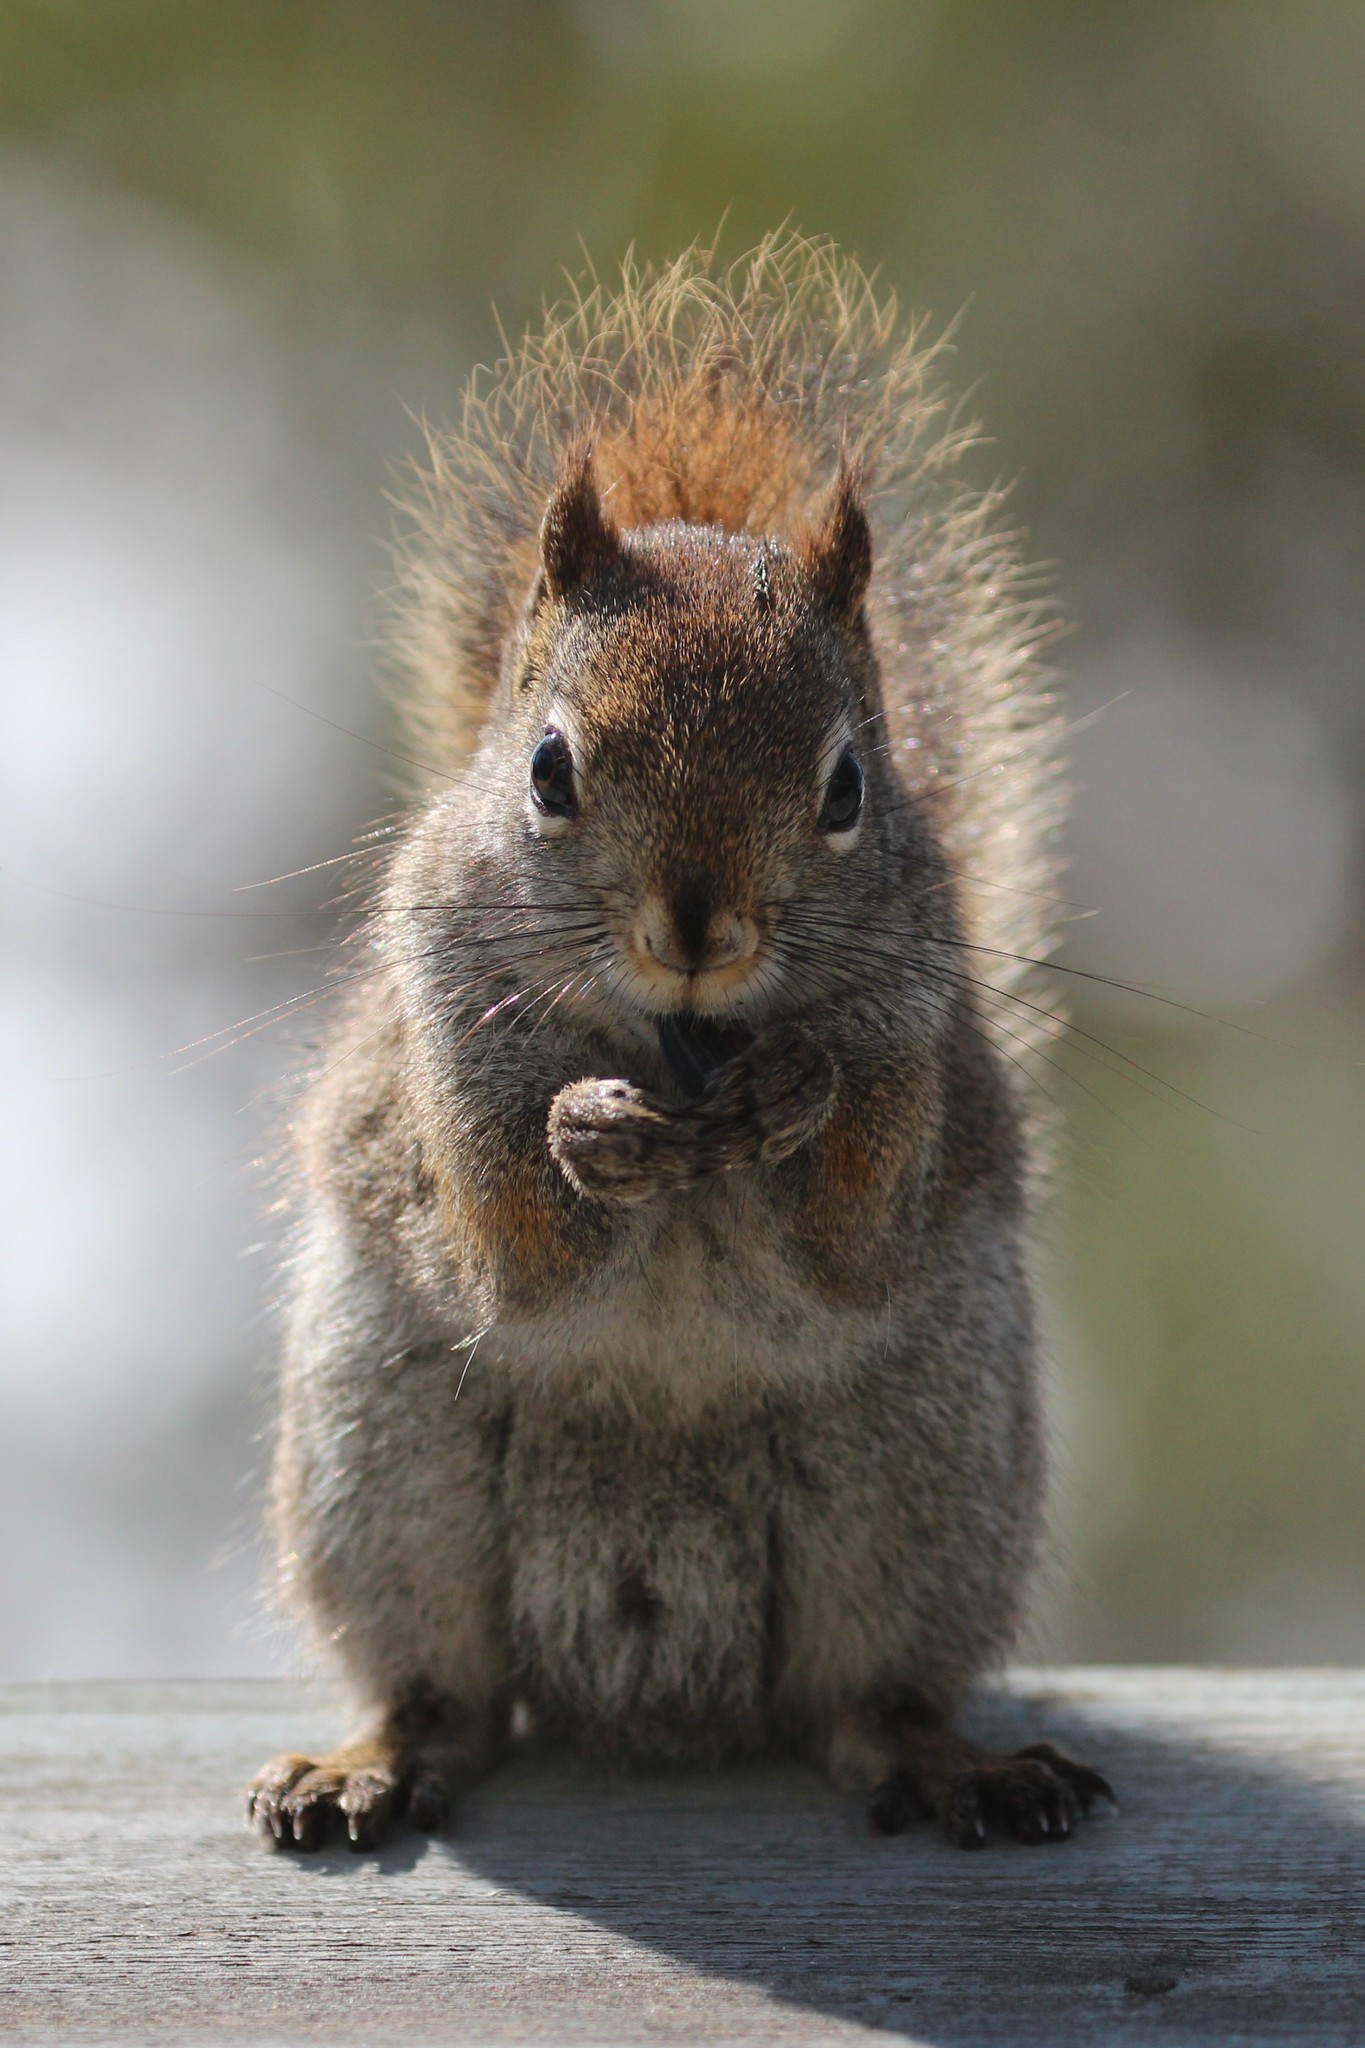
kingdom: Animalia
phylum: Chordata
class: Mammalia
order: Rodentia
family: Sciuridae
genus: Tamiasciurus
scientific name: Tamiasciurus hudsonicus
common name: Red squirrel
